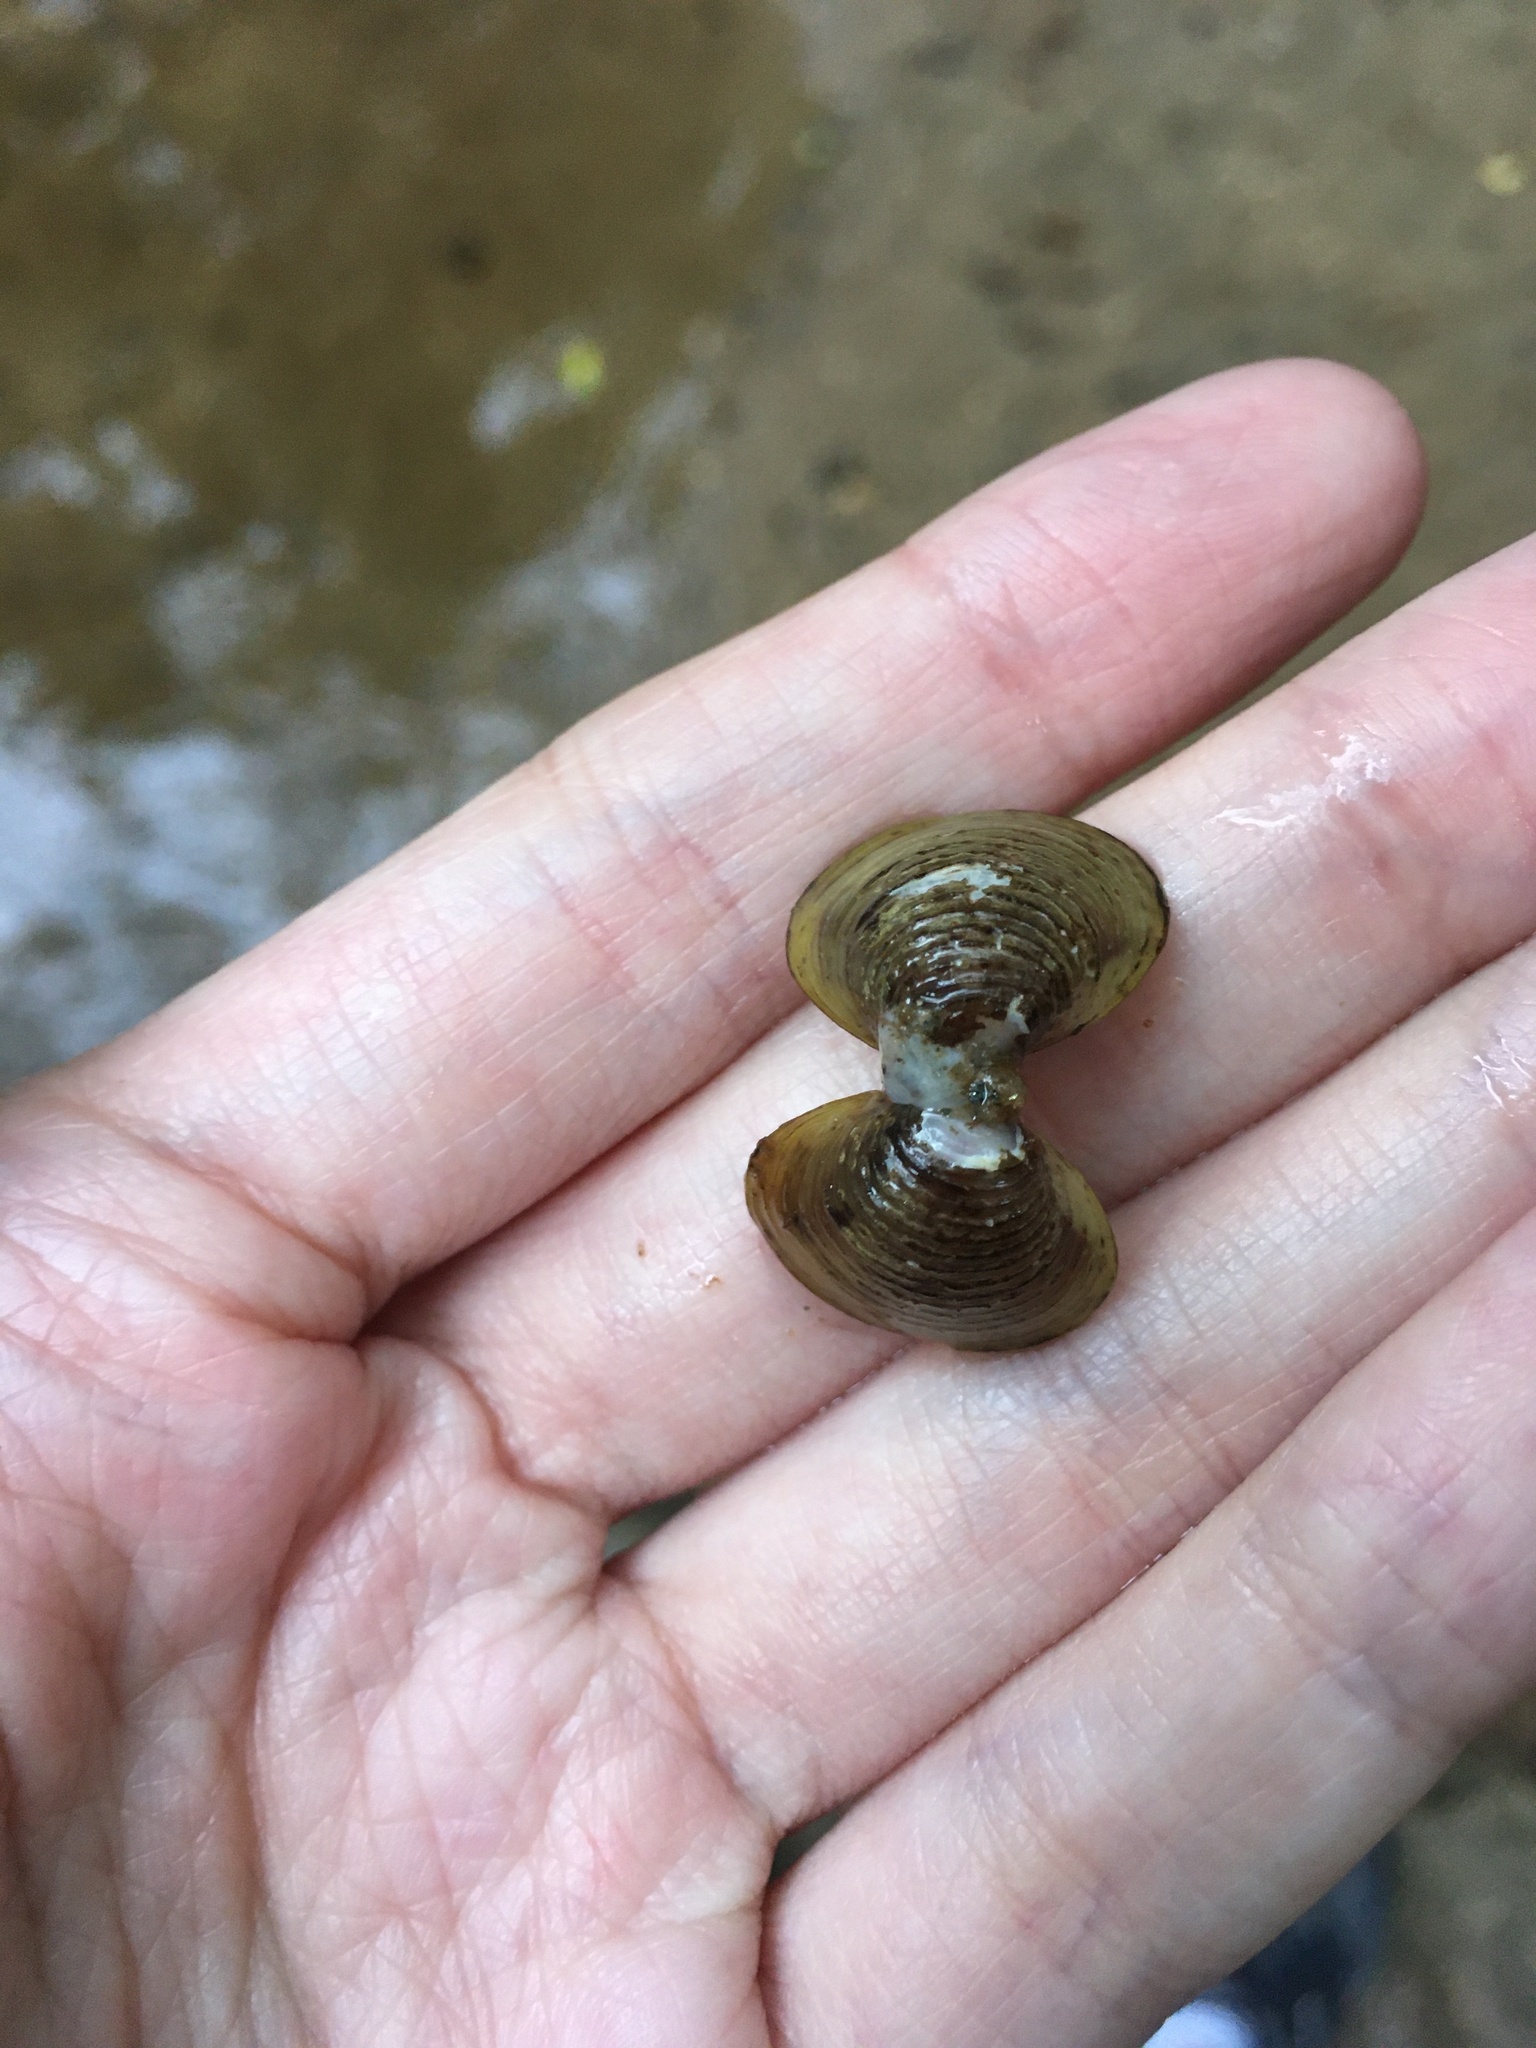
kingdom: Animalia
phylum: Mollusca
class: Bivalvia
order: Venerida
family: Cyrenidae
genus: Corbicula
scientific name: Corbicula fluminea
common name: Asian clam
